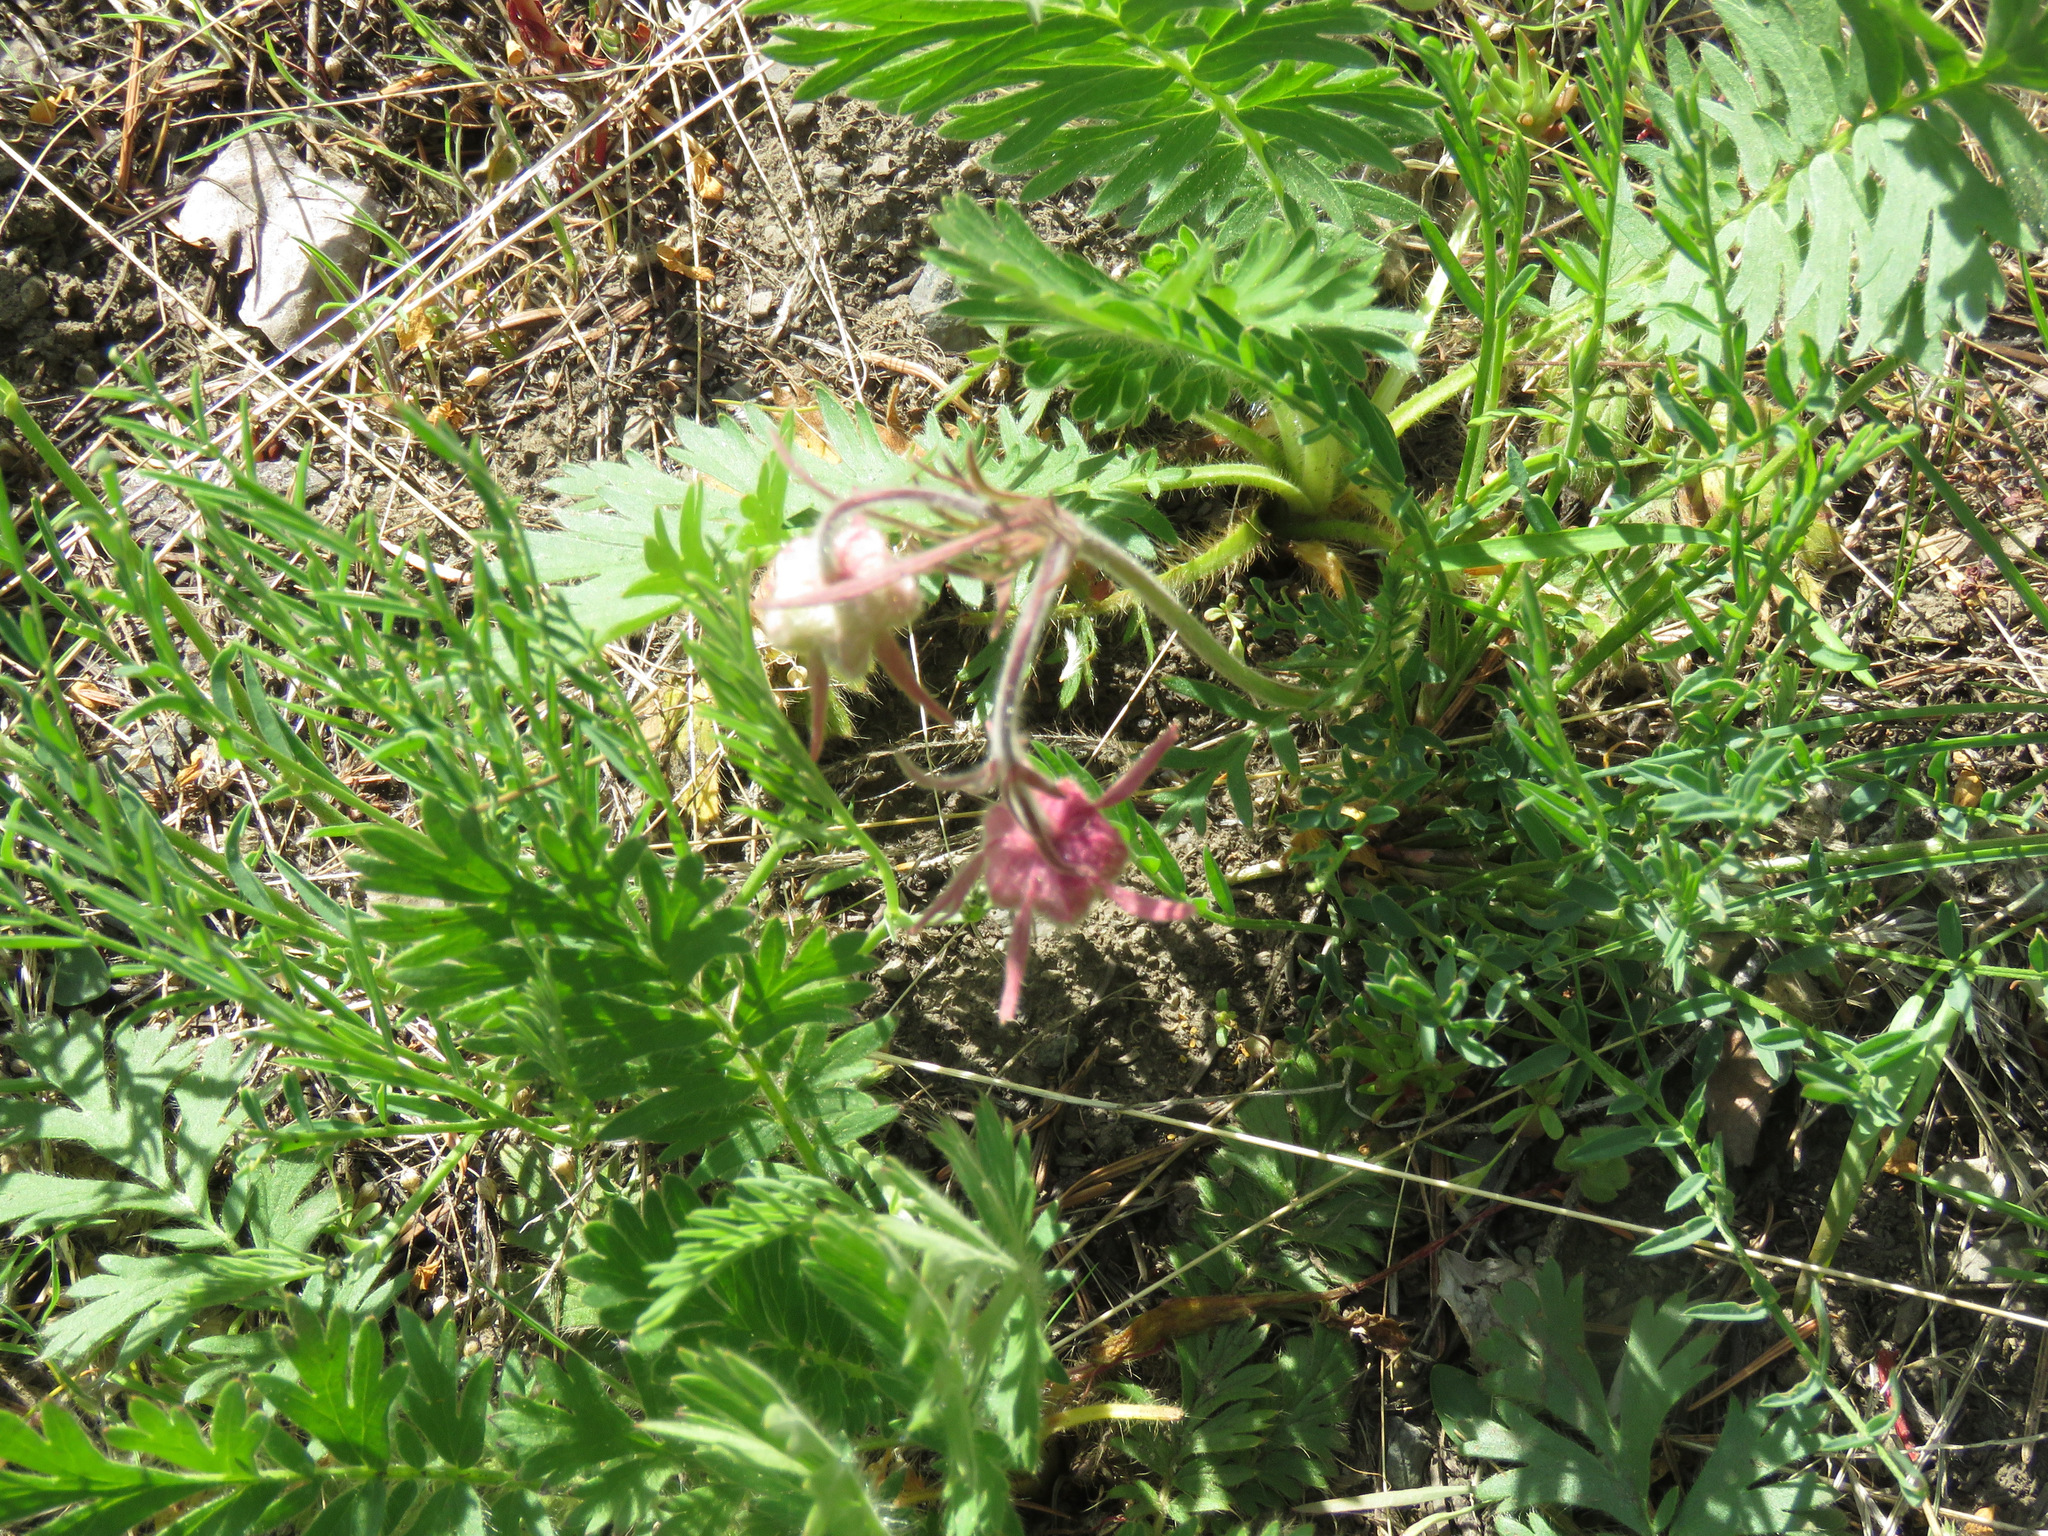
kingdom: Plantae
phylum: Tracheophyta
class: Magnoliopsida
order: Rosales
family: Rosaceae
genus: Geum
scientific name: Geum triflorum
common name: Old man's whiskers
